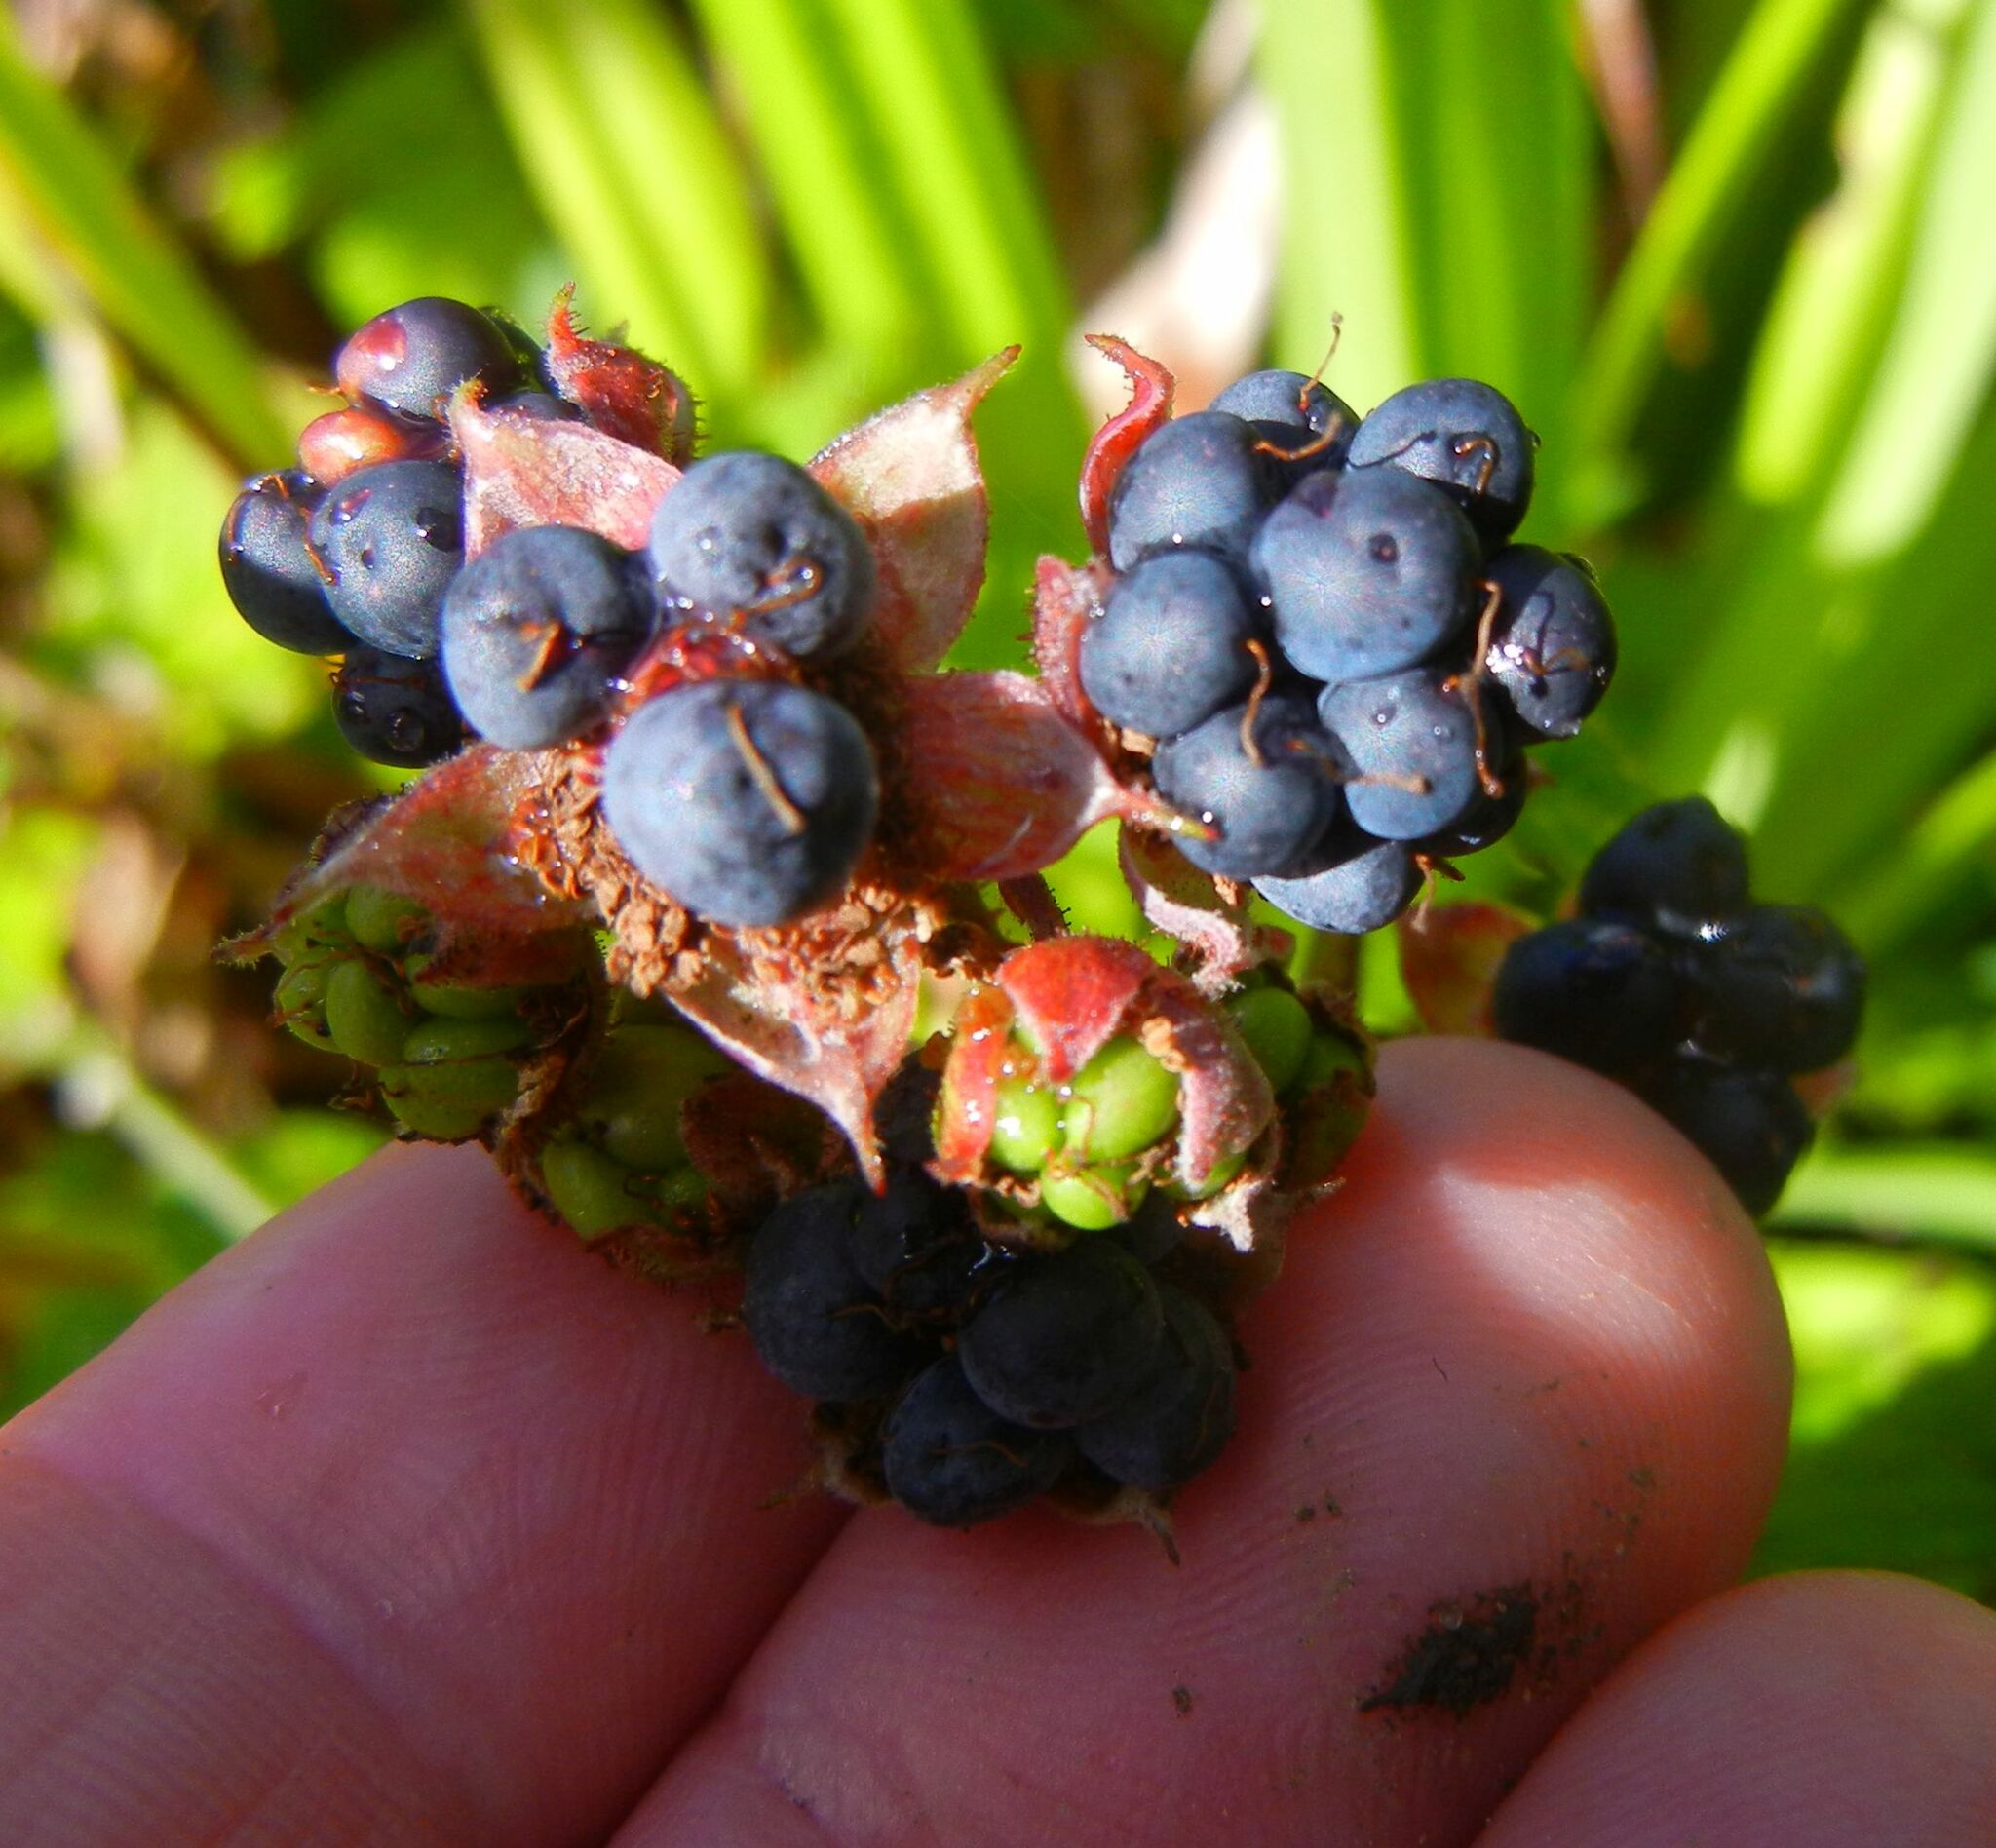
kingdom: Plantae
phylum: Tracheophyta
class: Magnoliopsida
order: Rosales
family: Rosaceae
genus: Rubus
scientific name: Rubus caesius
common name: Dewberry
